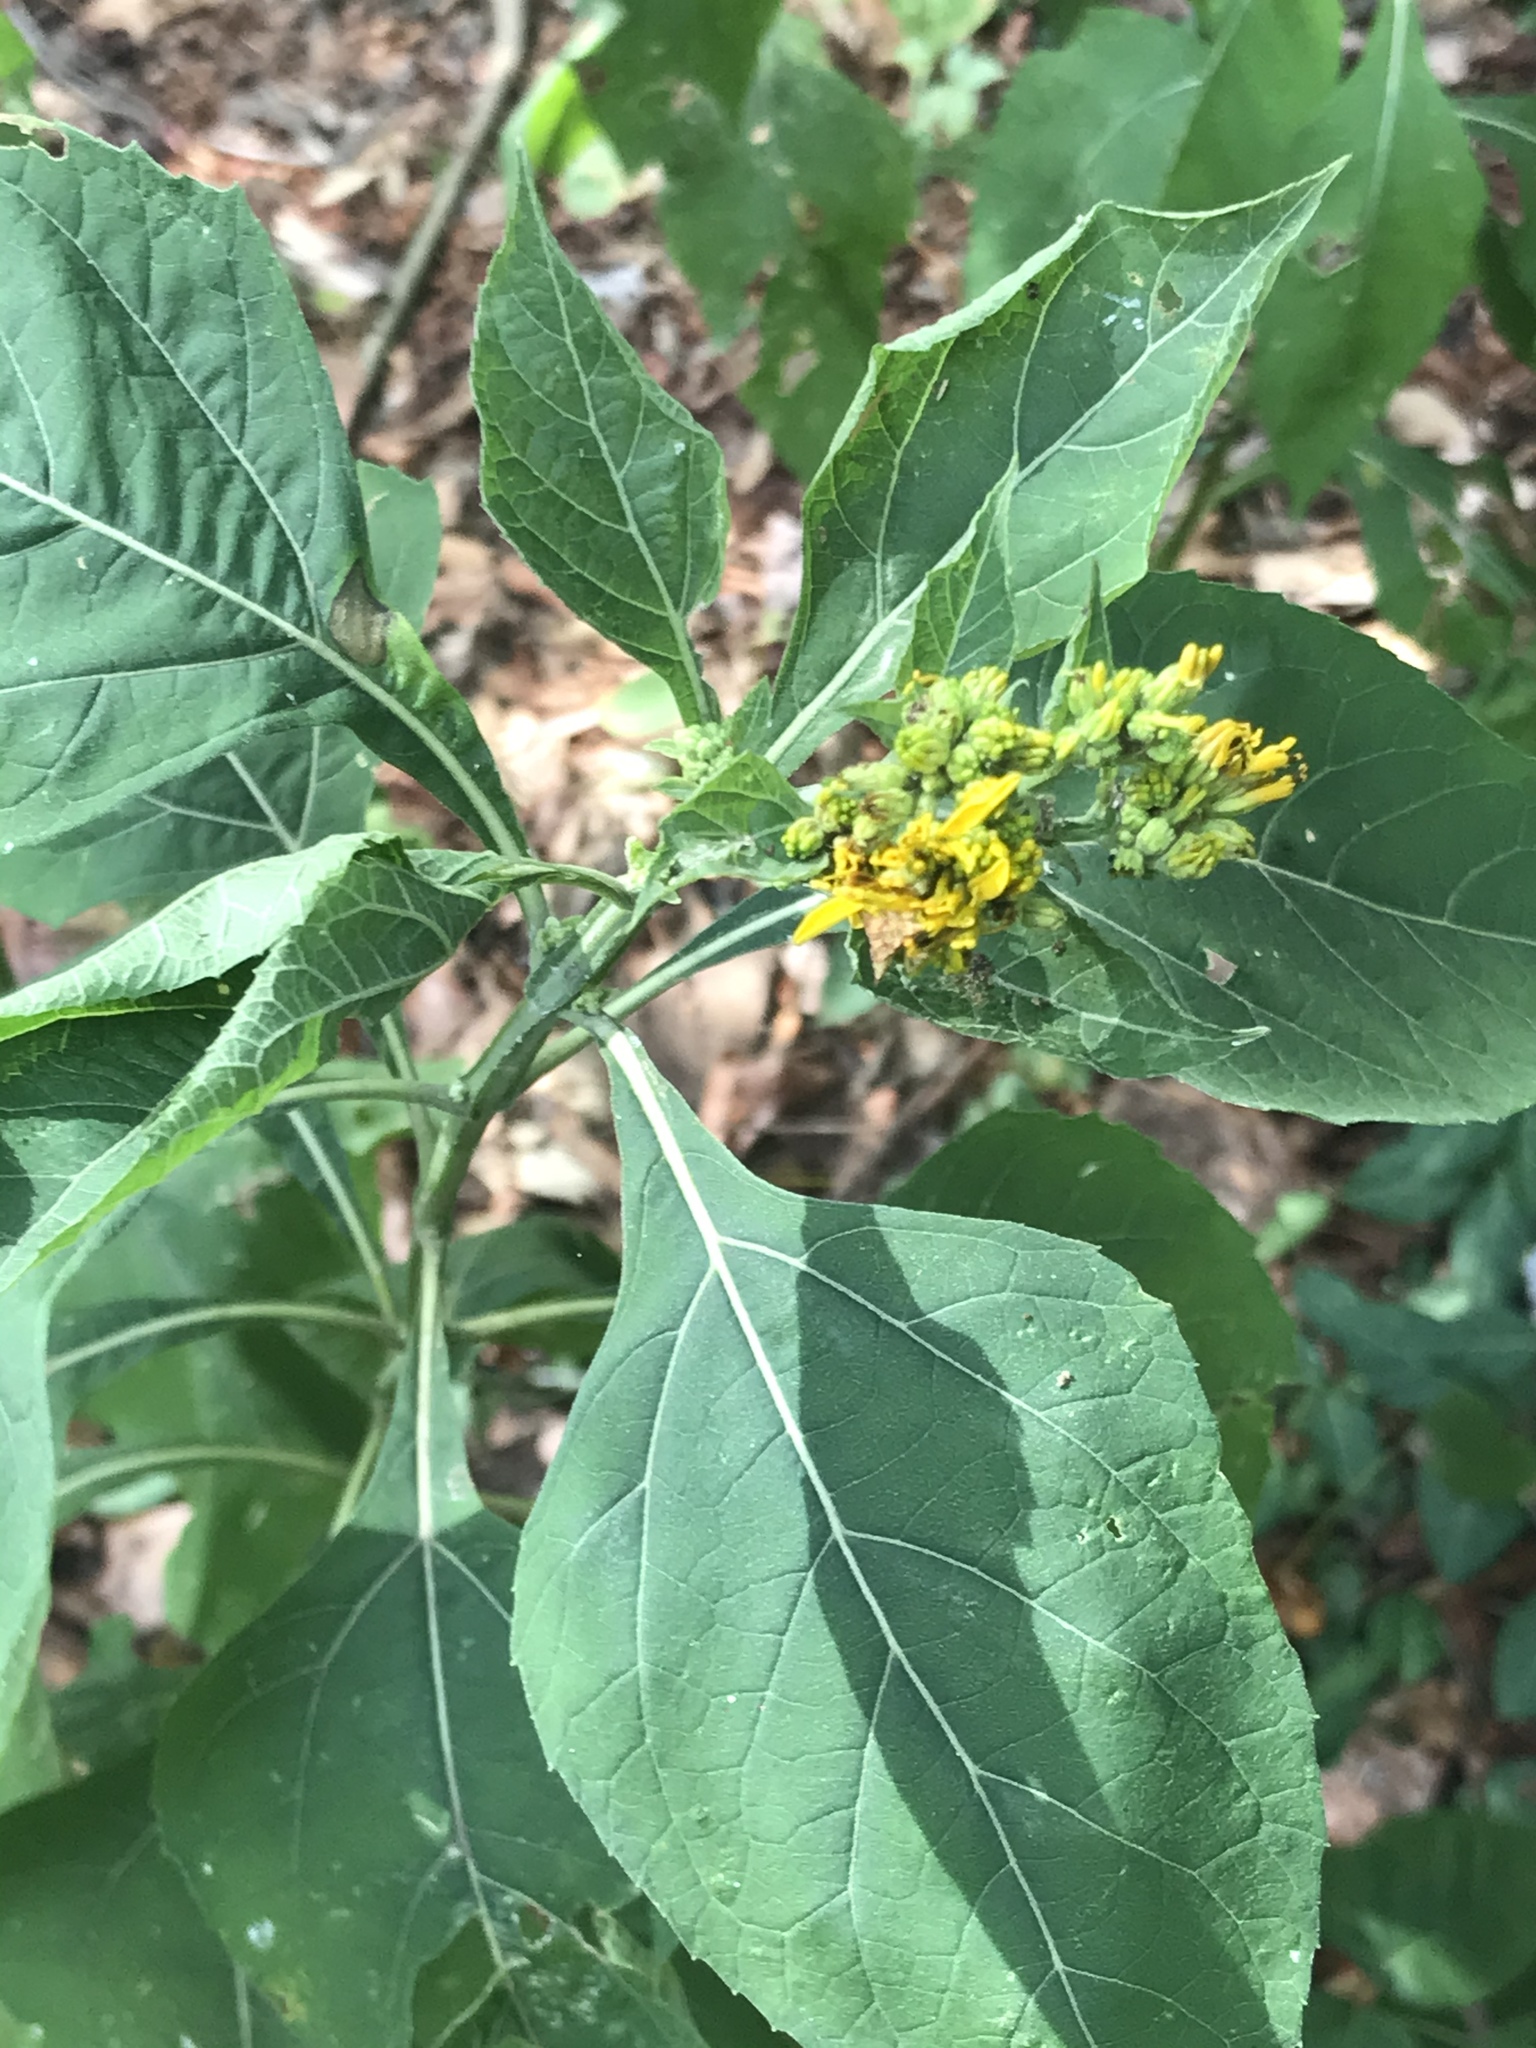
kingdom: Plantae
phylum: Tracheophyta
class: Magnoliopsida
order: Asterales
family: Asteraceae
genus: Verbesina
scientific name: Verbesina occidentalis
